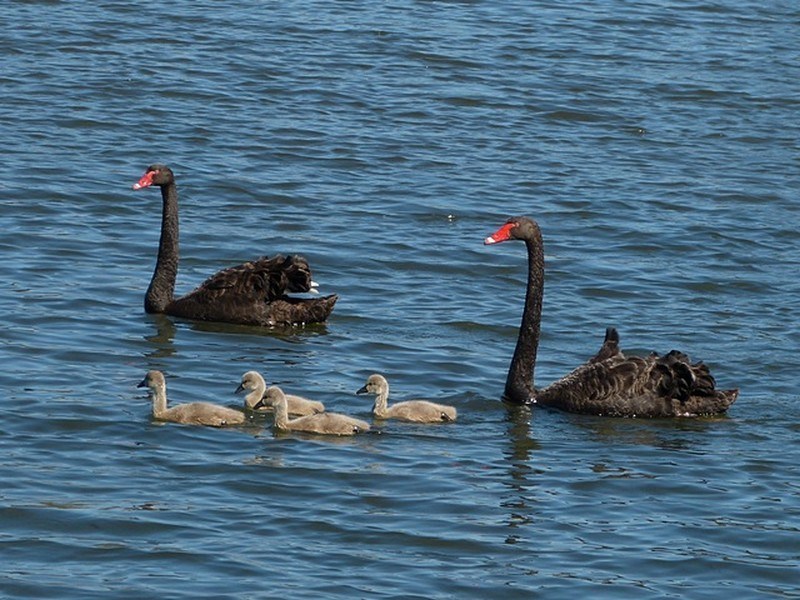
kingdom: Animalia
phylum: Chordata
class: Aves
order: Anseriformes
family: Anatidae
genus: Cygnus
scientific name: Cygnus atratus
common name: Black swan
